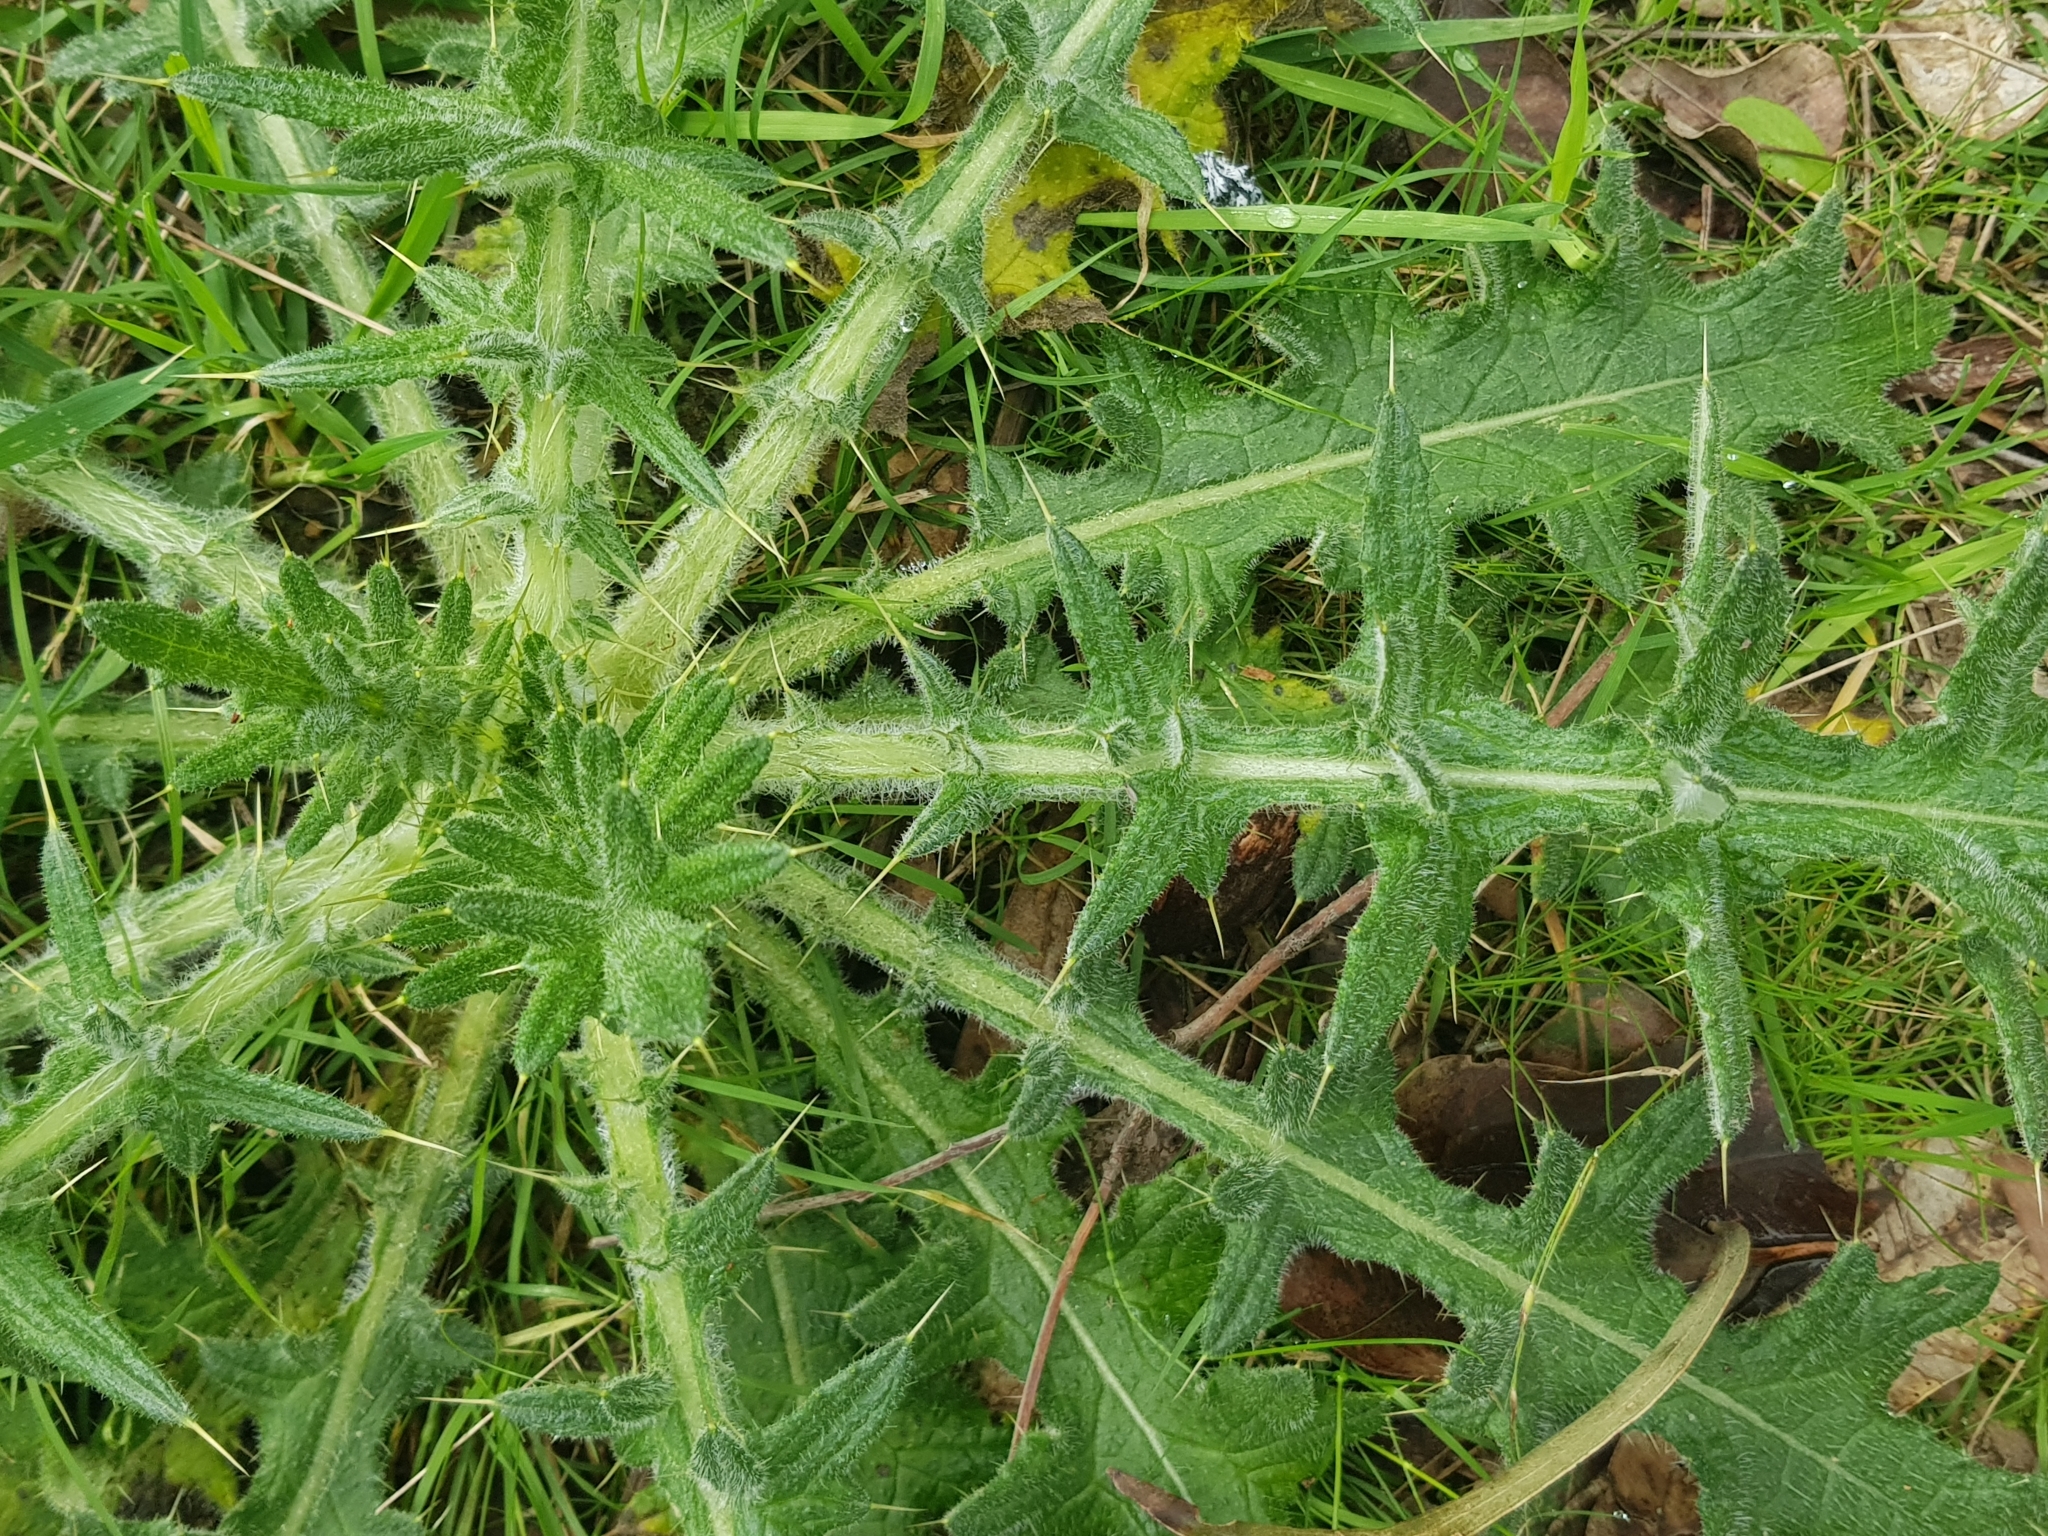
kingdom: Plantae
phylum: Tracheophyta
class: Magnoliopsida
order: Asterales
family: Asteraceae
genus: Cirsium
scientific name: Cirsium vulgare
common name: Bull thistle
